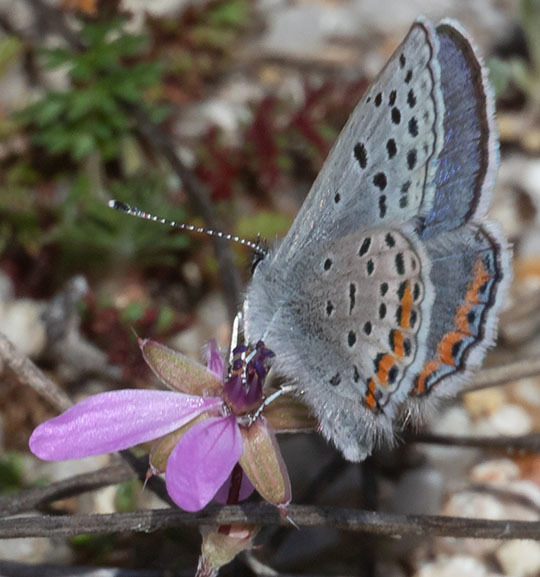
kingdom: Animalia
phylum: Arthropoda
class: Insecta
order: Lepidoptera
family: Lycaenidae
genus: Icaricia
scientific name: Icaricia acmon
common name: Acmon blue
